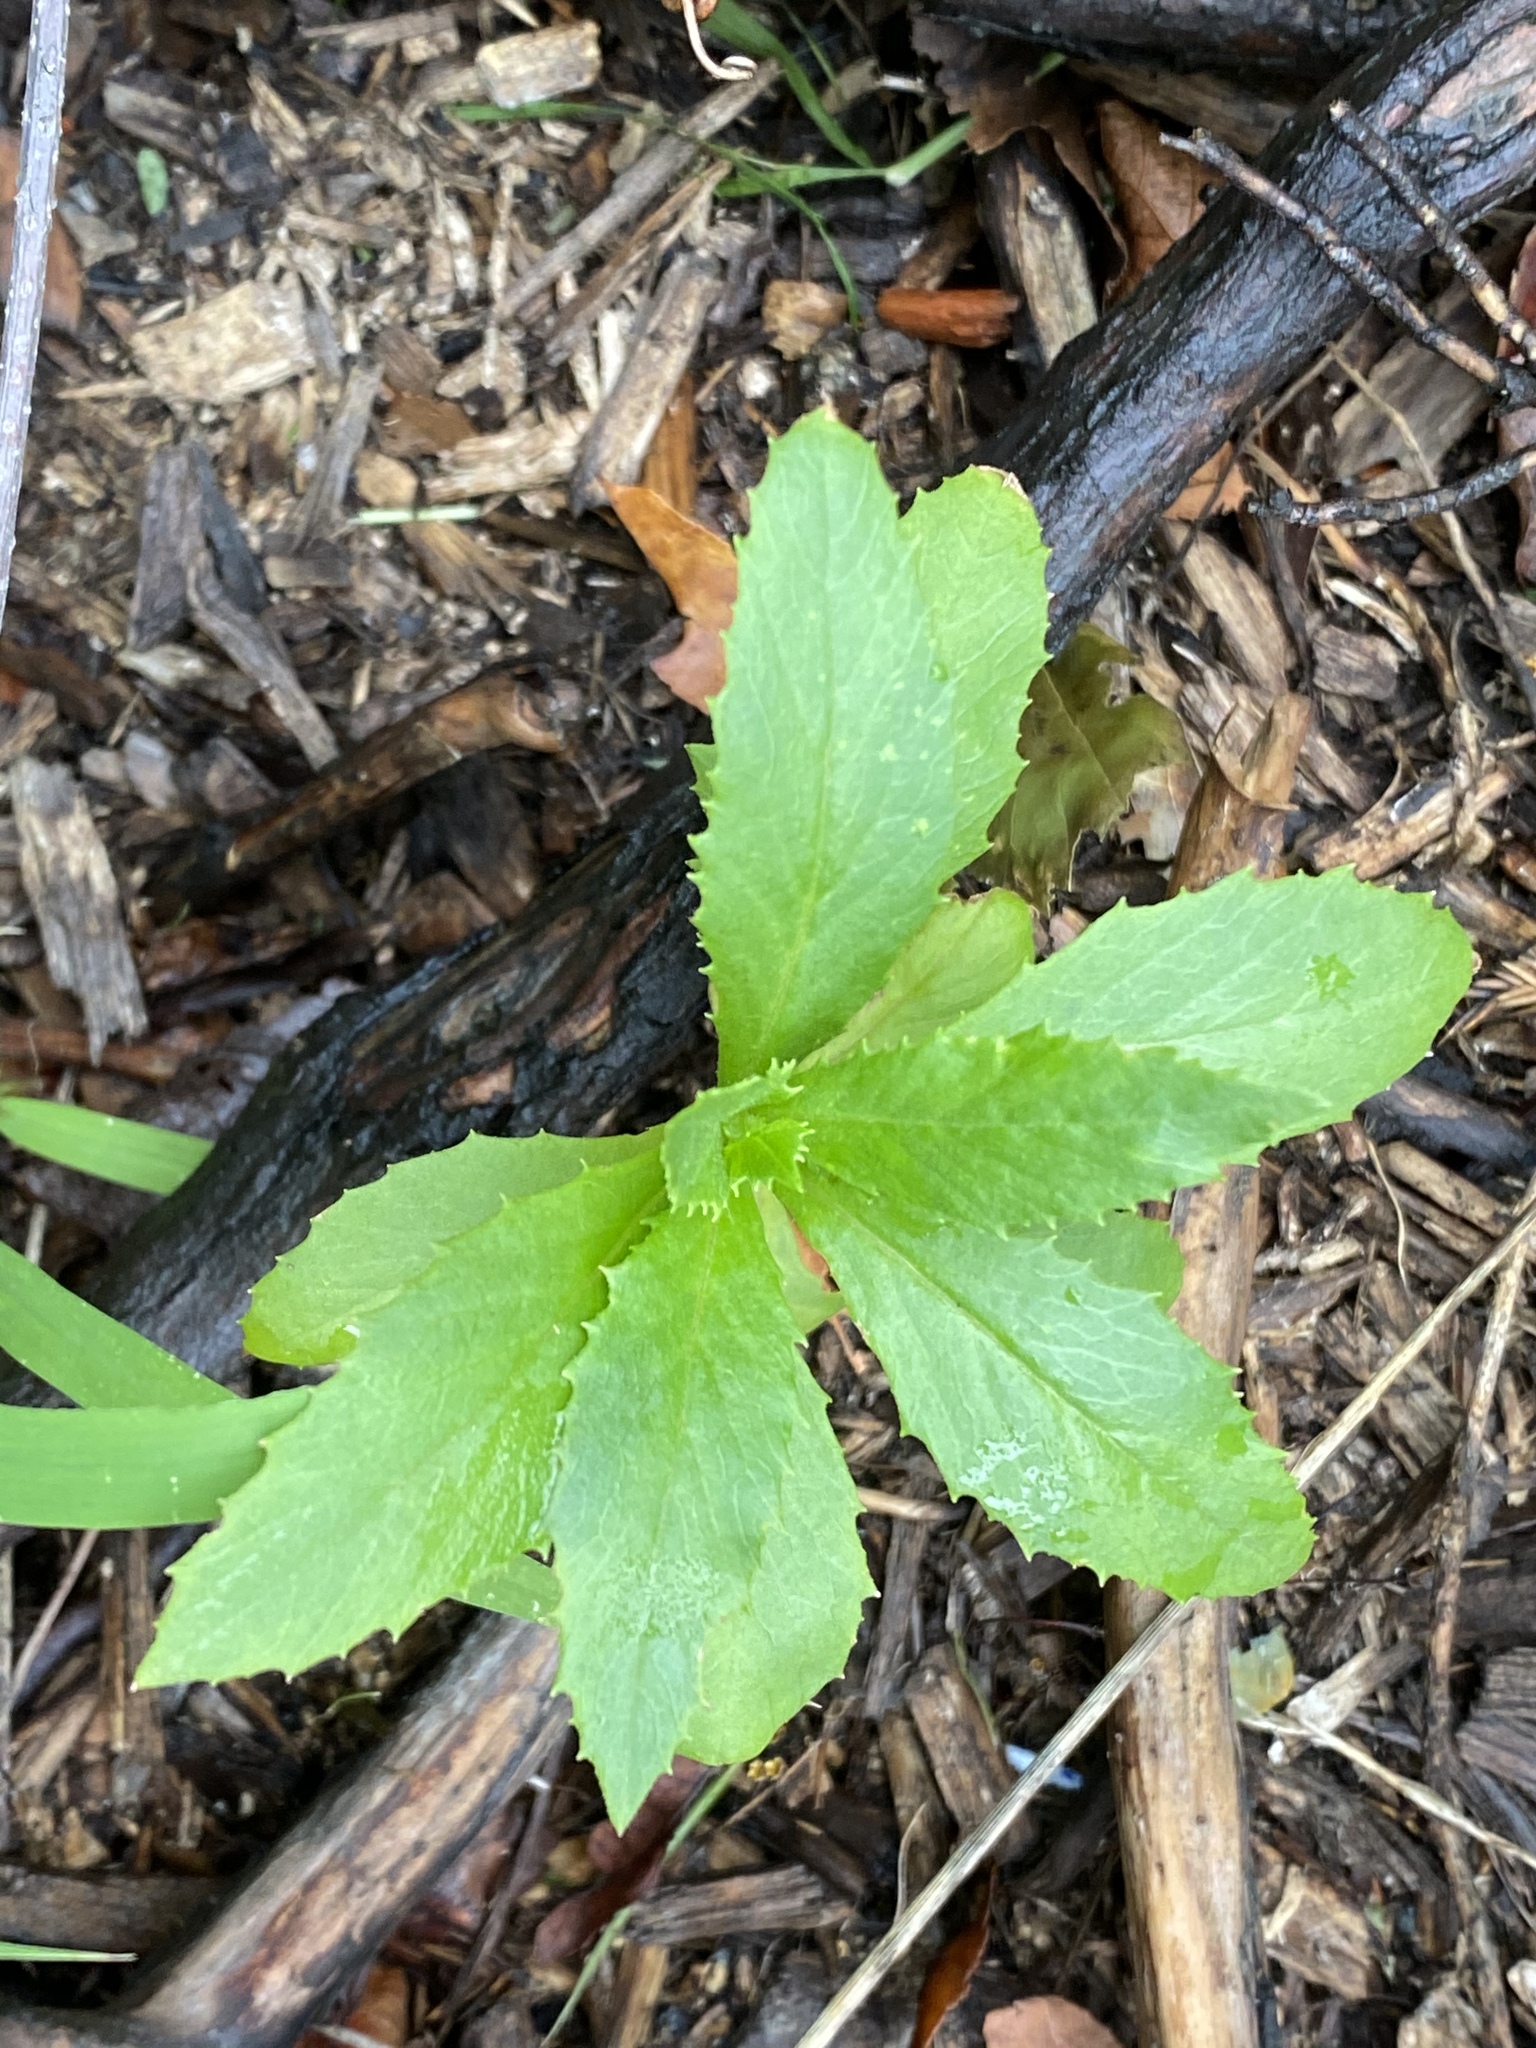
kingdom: Plantae
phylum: Tracheophyta
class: Magnoliopsida
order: Asterales
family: Asteraceae
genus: Erechtites
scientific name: Erechtites hieraciifolius
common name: American burnweed
